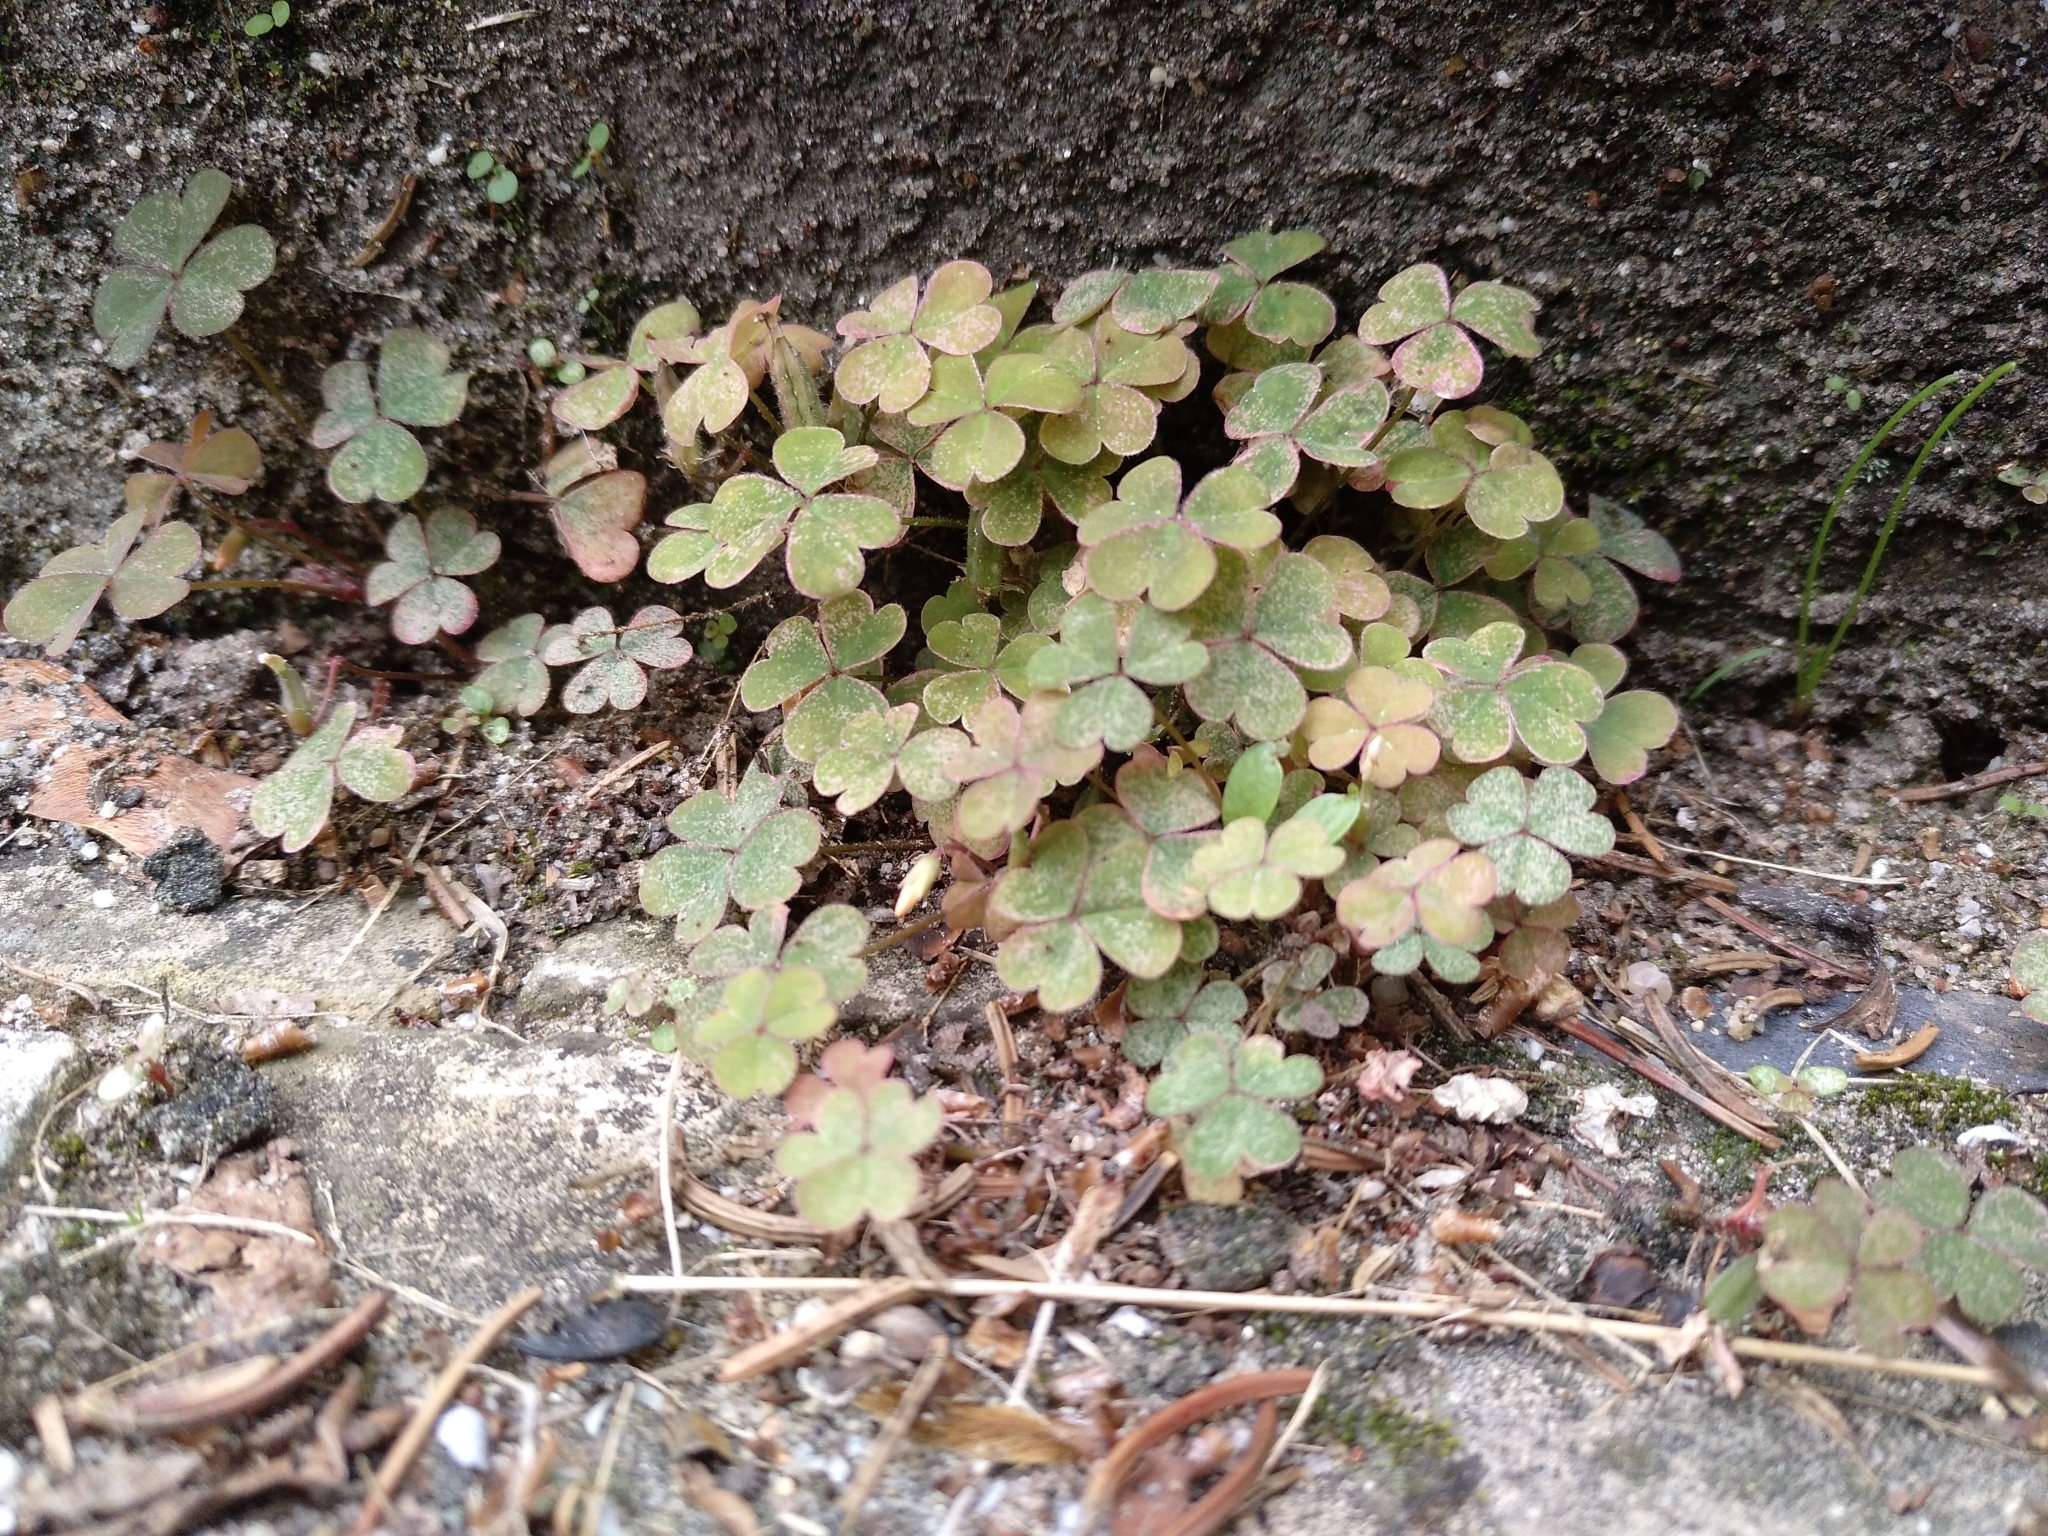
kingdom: Plantae
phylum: Tracheophyta
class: Magnoliopsida
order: Oxalidales
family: Oxalidaceae
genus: Oxalis
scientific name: Oxalis corniculata
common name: Procumbent yellow-sorrel
